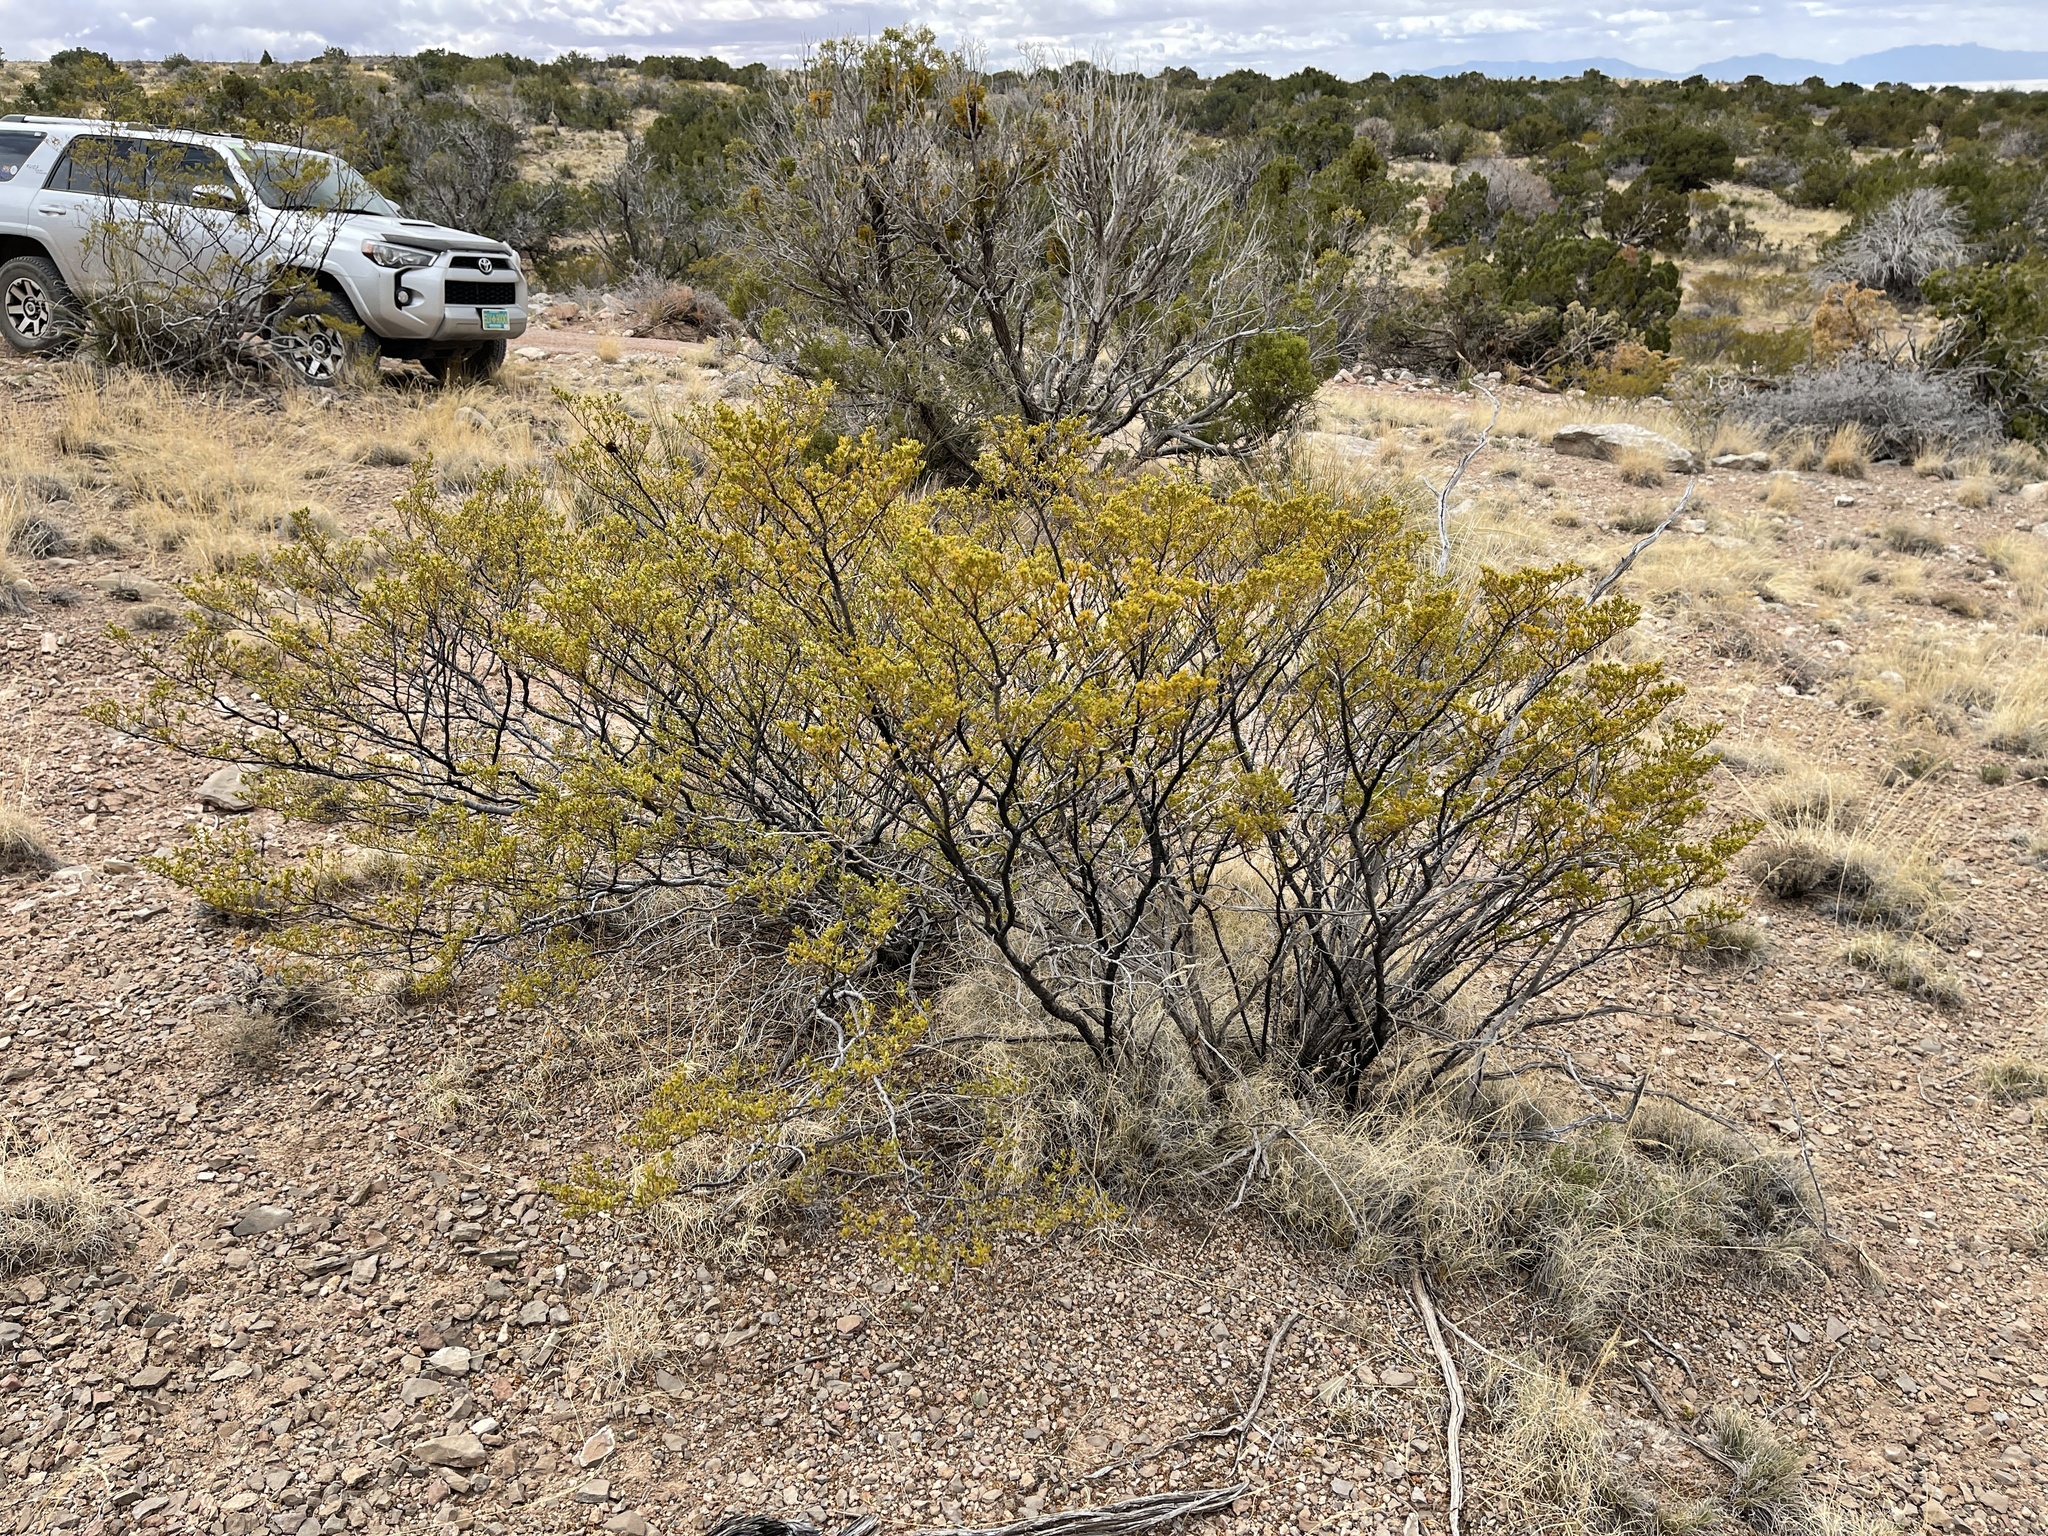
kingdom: Plantae
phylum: Tracheophyta
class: Magnoliopsida
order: Zygophyllales
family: Zygophyllaceae
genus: Larrea
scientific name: Larrea tridentata
